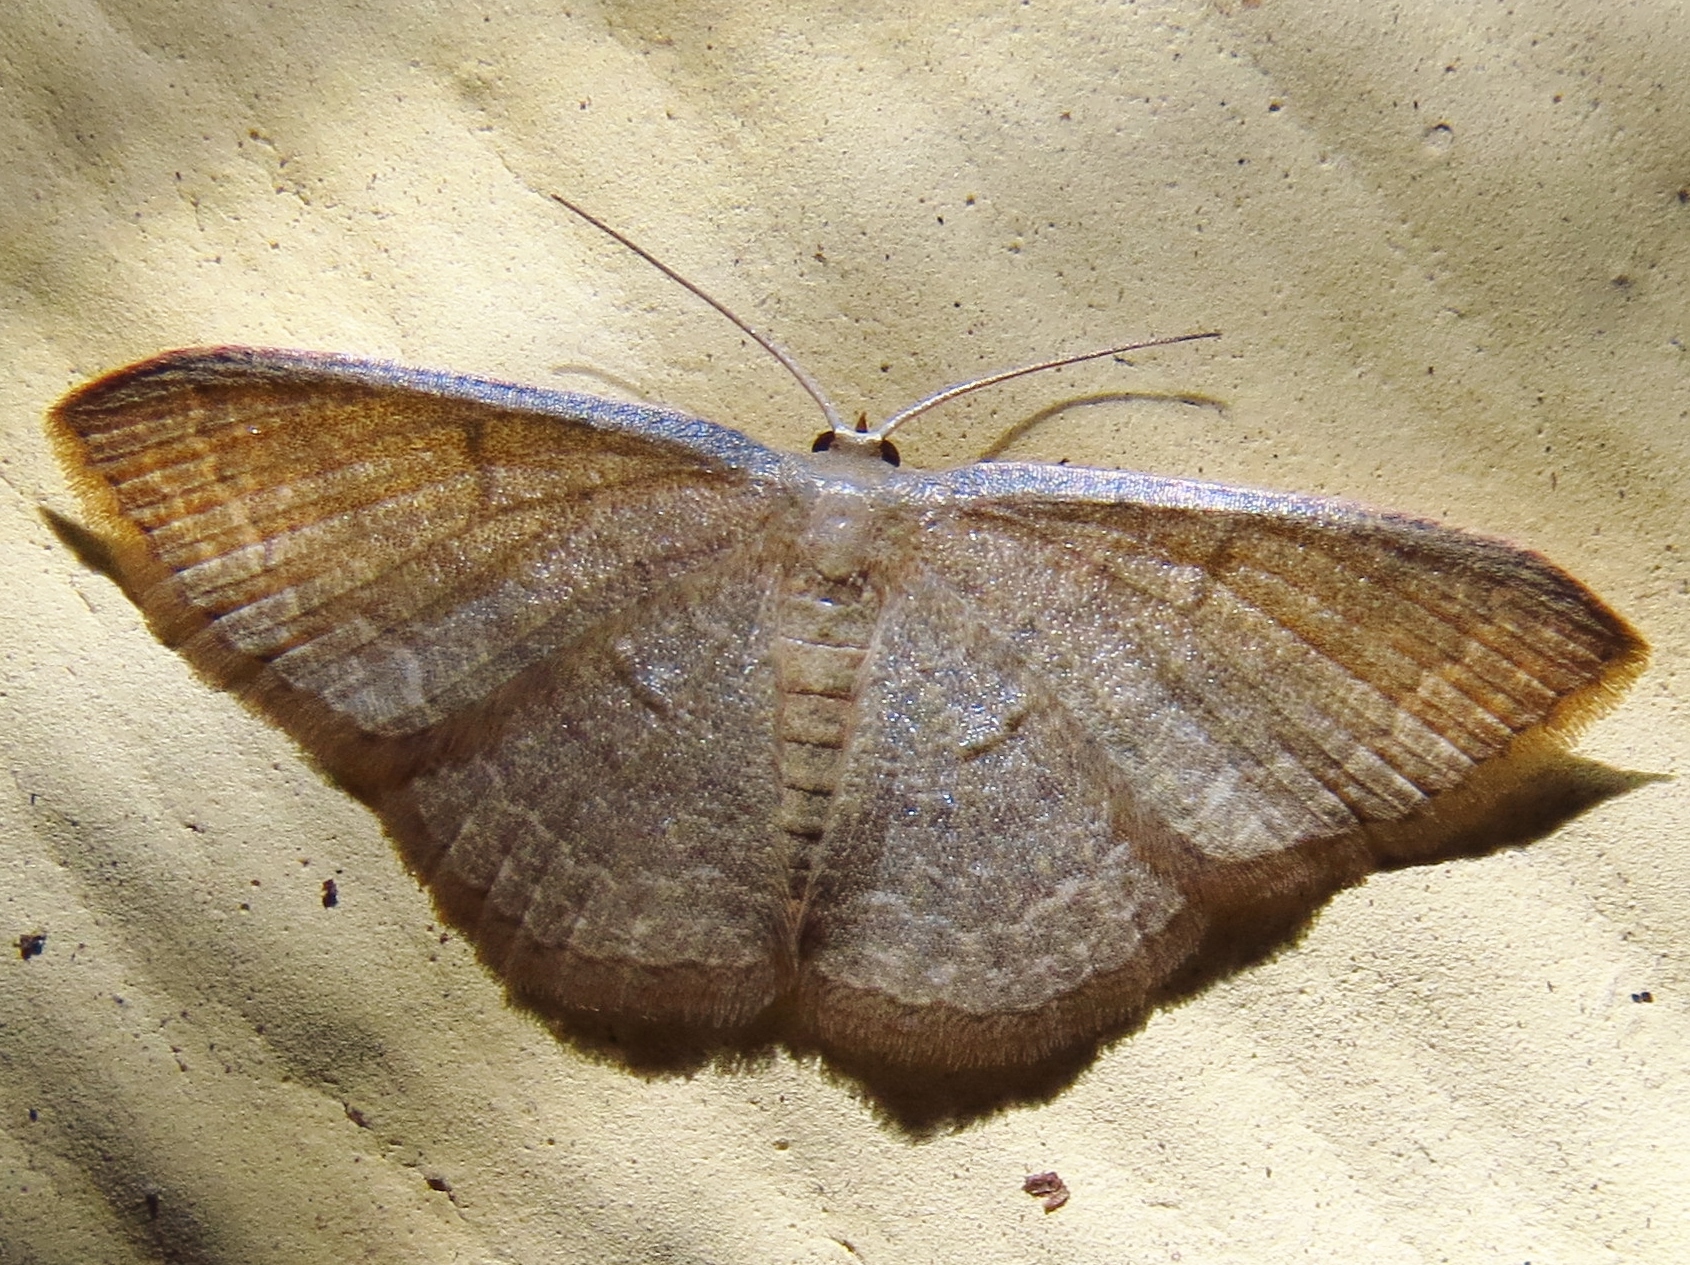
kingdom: Animalia
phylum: Arthropoda
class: Insecta
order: Lepidoptera
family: Geometridae
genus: Pleuroprucha
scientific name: Pleuroprucha insulsaria
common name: Common tan wave
